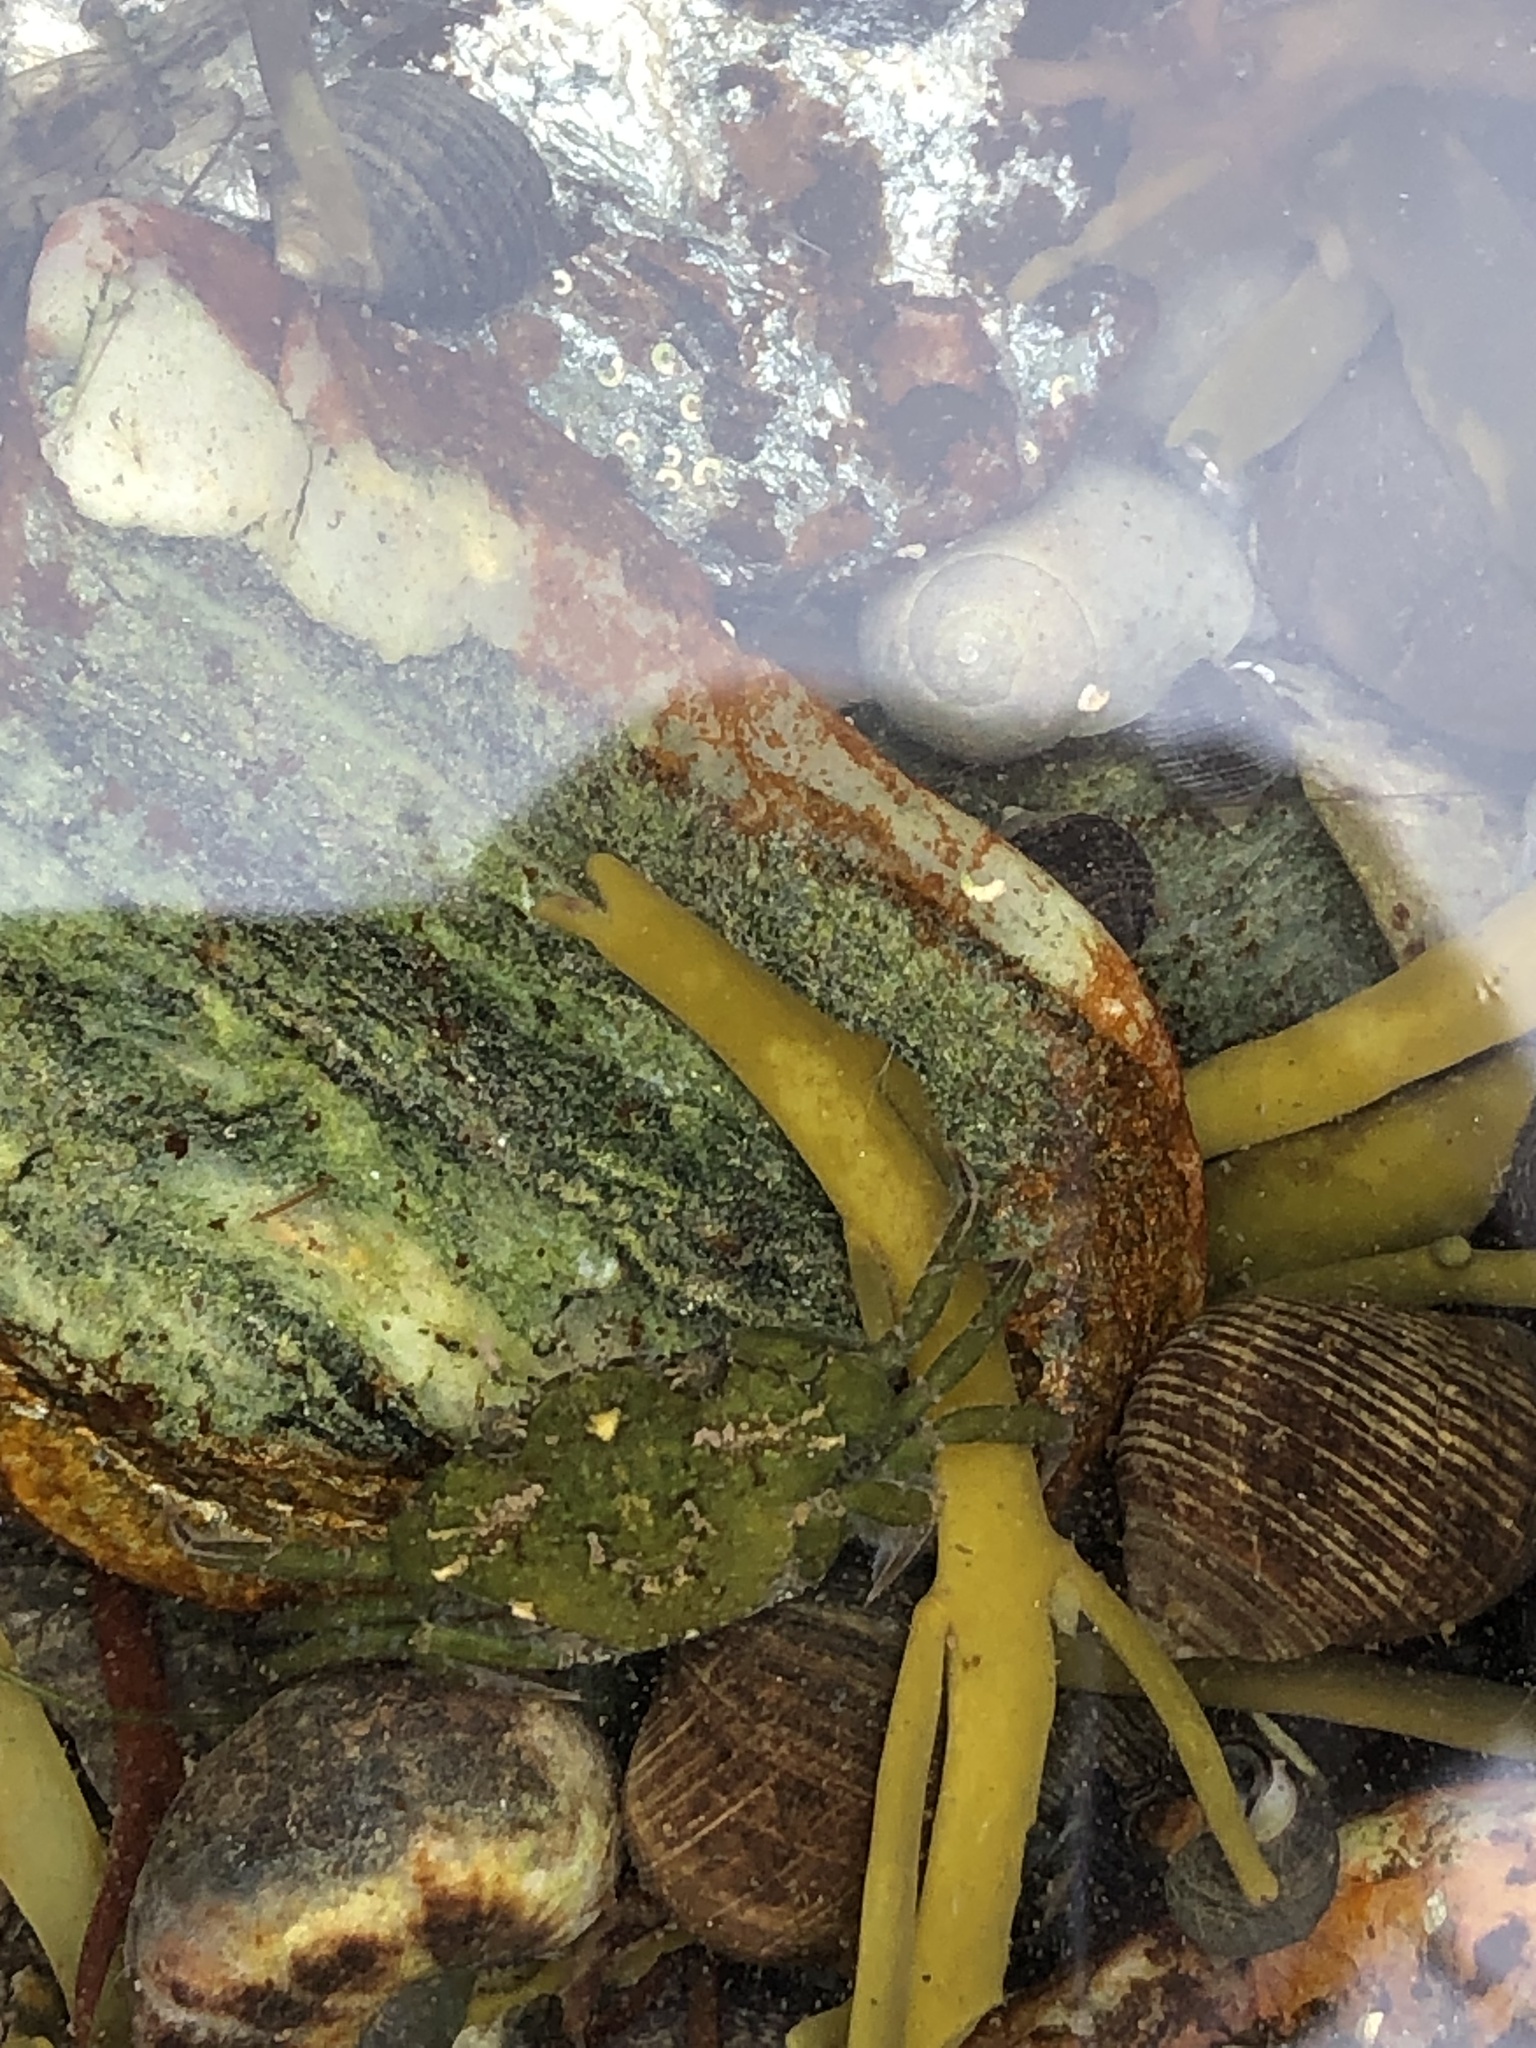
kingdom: Animalia
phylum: Arthropoda
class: Malacostraca
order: Decapoda
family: Carcinidae
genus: Carcinus
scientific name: Carcinus maenas
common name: European green crab
